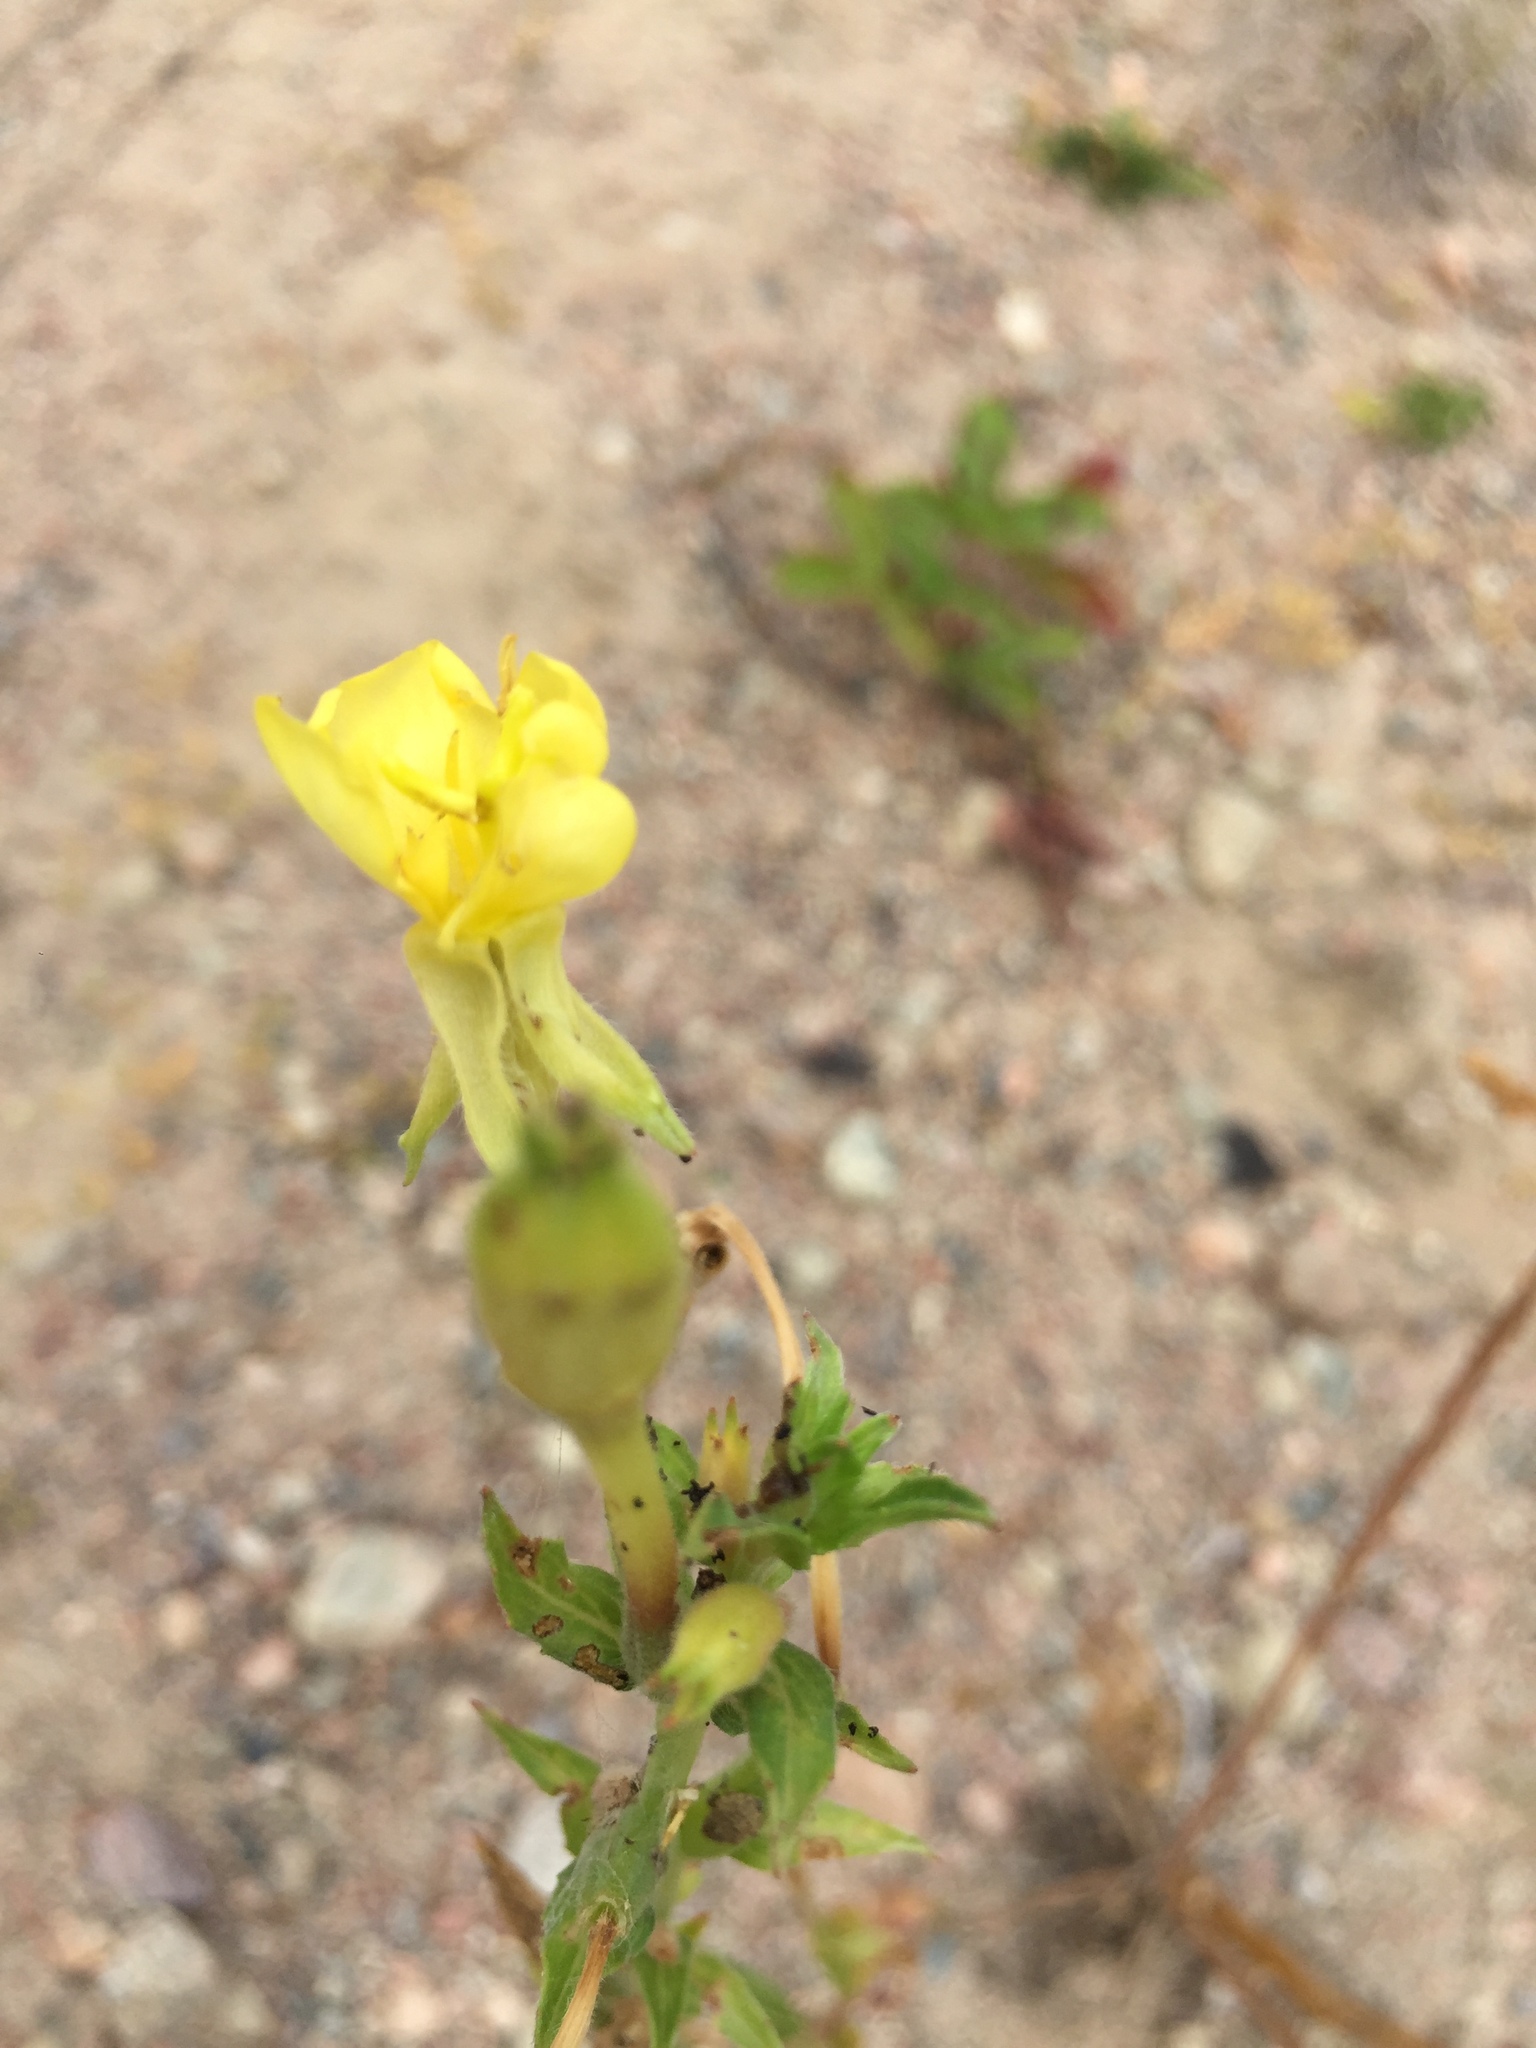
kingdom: Plantae
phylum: Tracheophyta
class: Magnoliopsida
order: Myrtales
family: Onagraceae
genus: Oenothera
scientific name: Oenothera biennis
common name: Common evening-primrose
